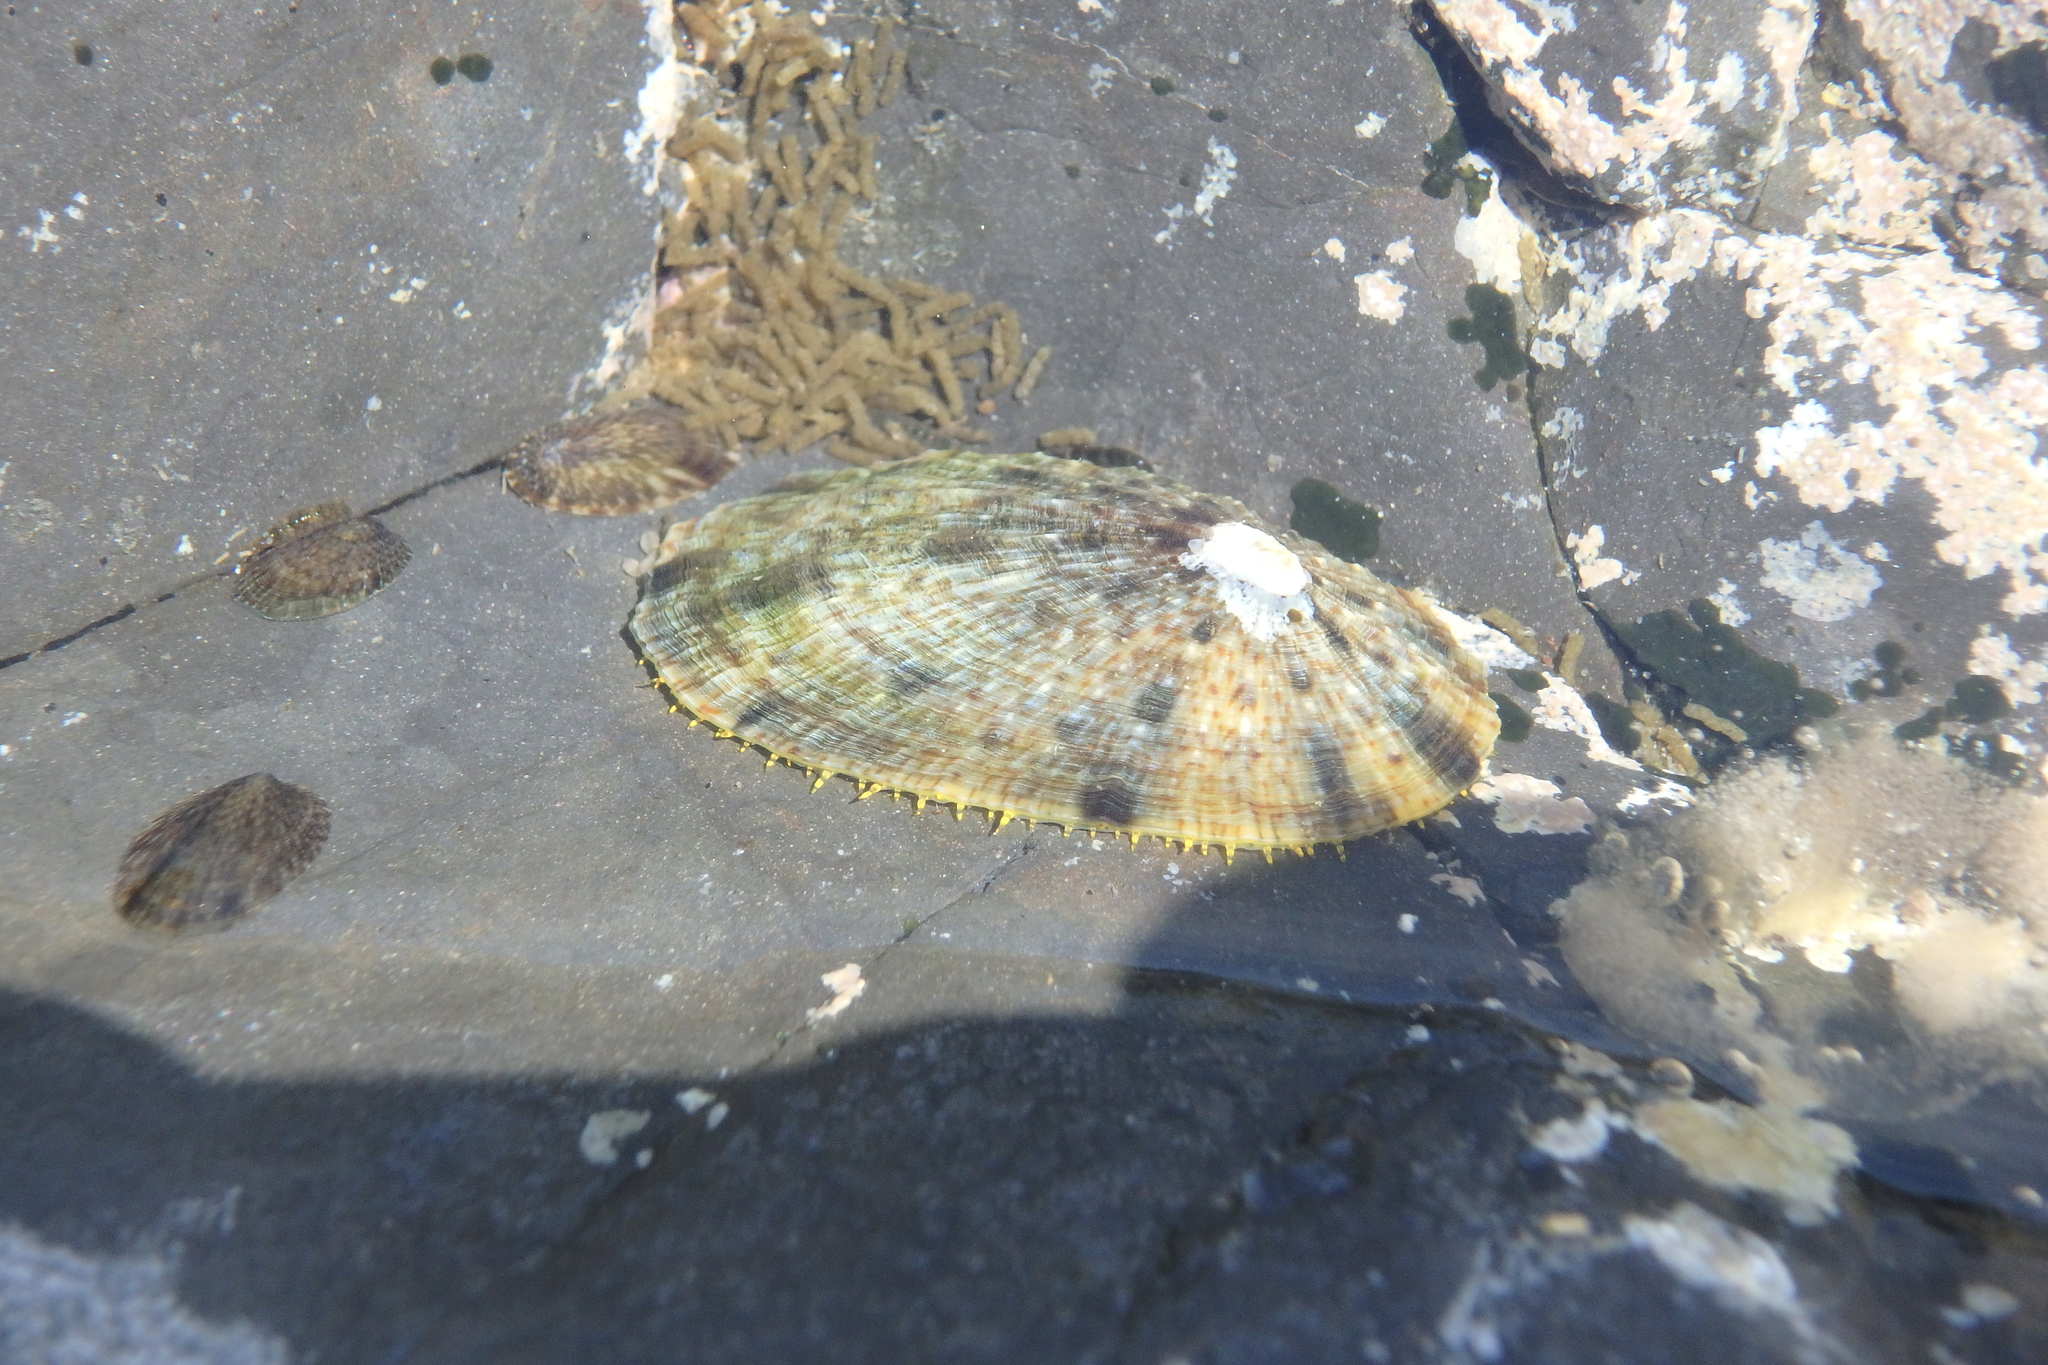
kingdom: Animalia
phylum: Mollusca
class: Gastropoda
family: Nacellidae
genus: Cellana
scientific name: Cellana toreuma
